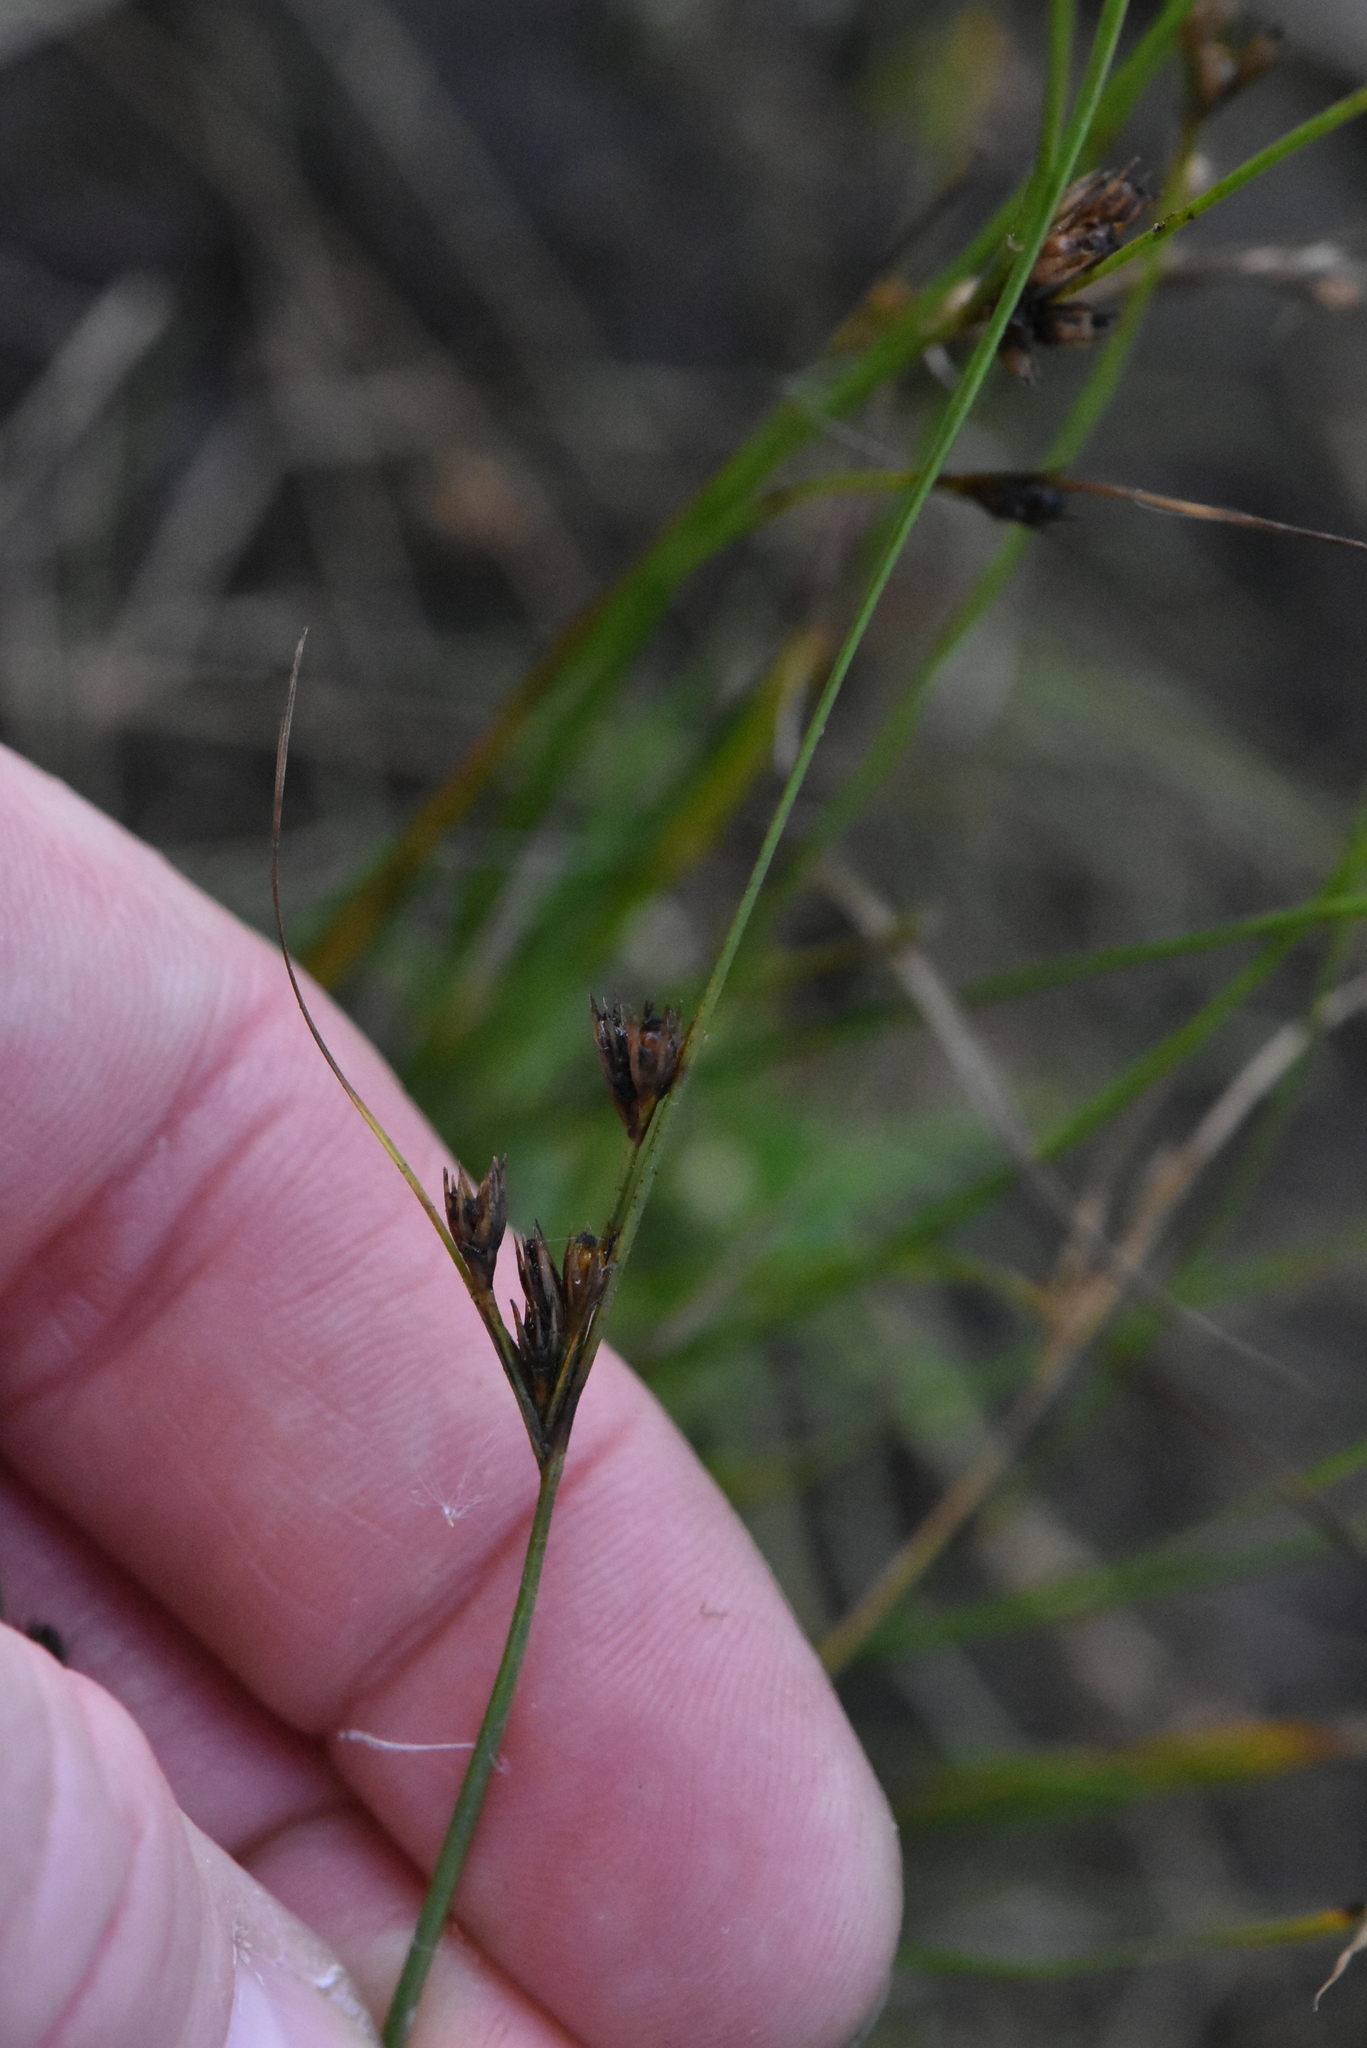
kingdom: Plantae
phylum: Tracheophyta
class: Liliopsida
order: Poales
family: Juncaceae
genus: Juncus
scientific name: Juncus tenuis
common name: Slender rush
